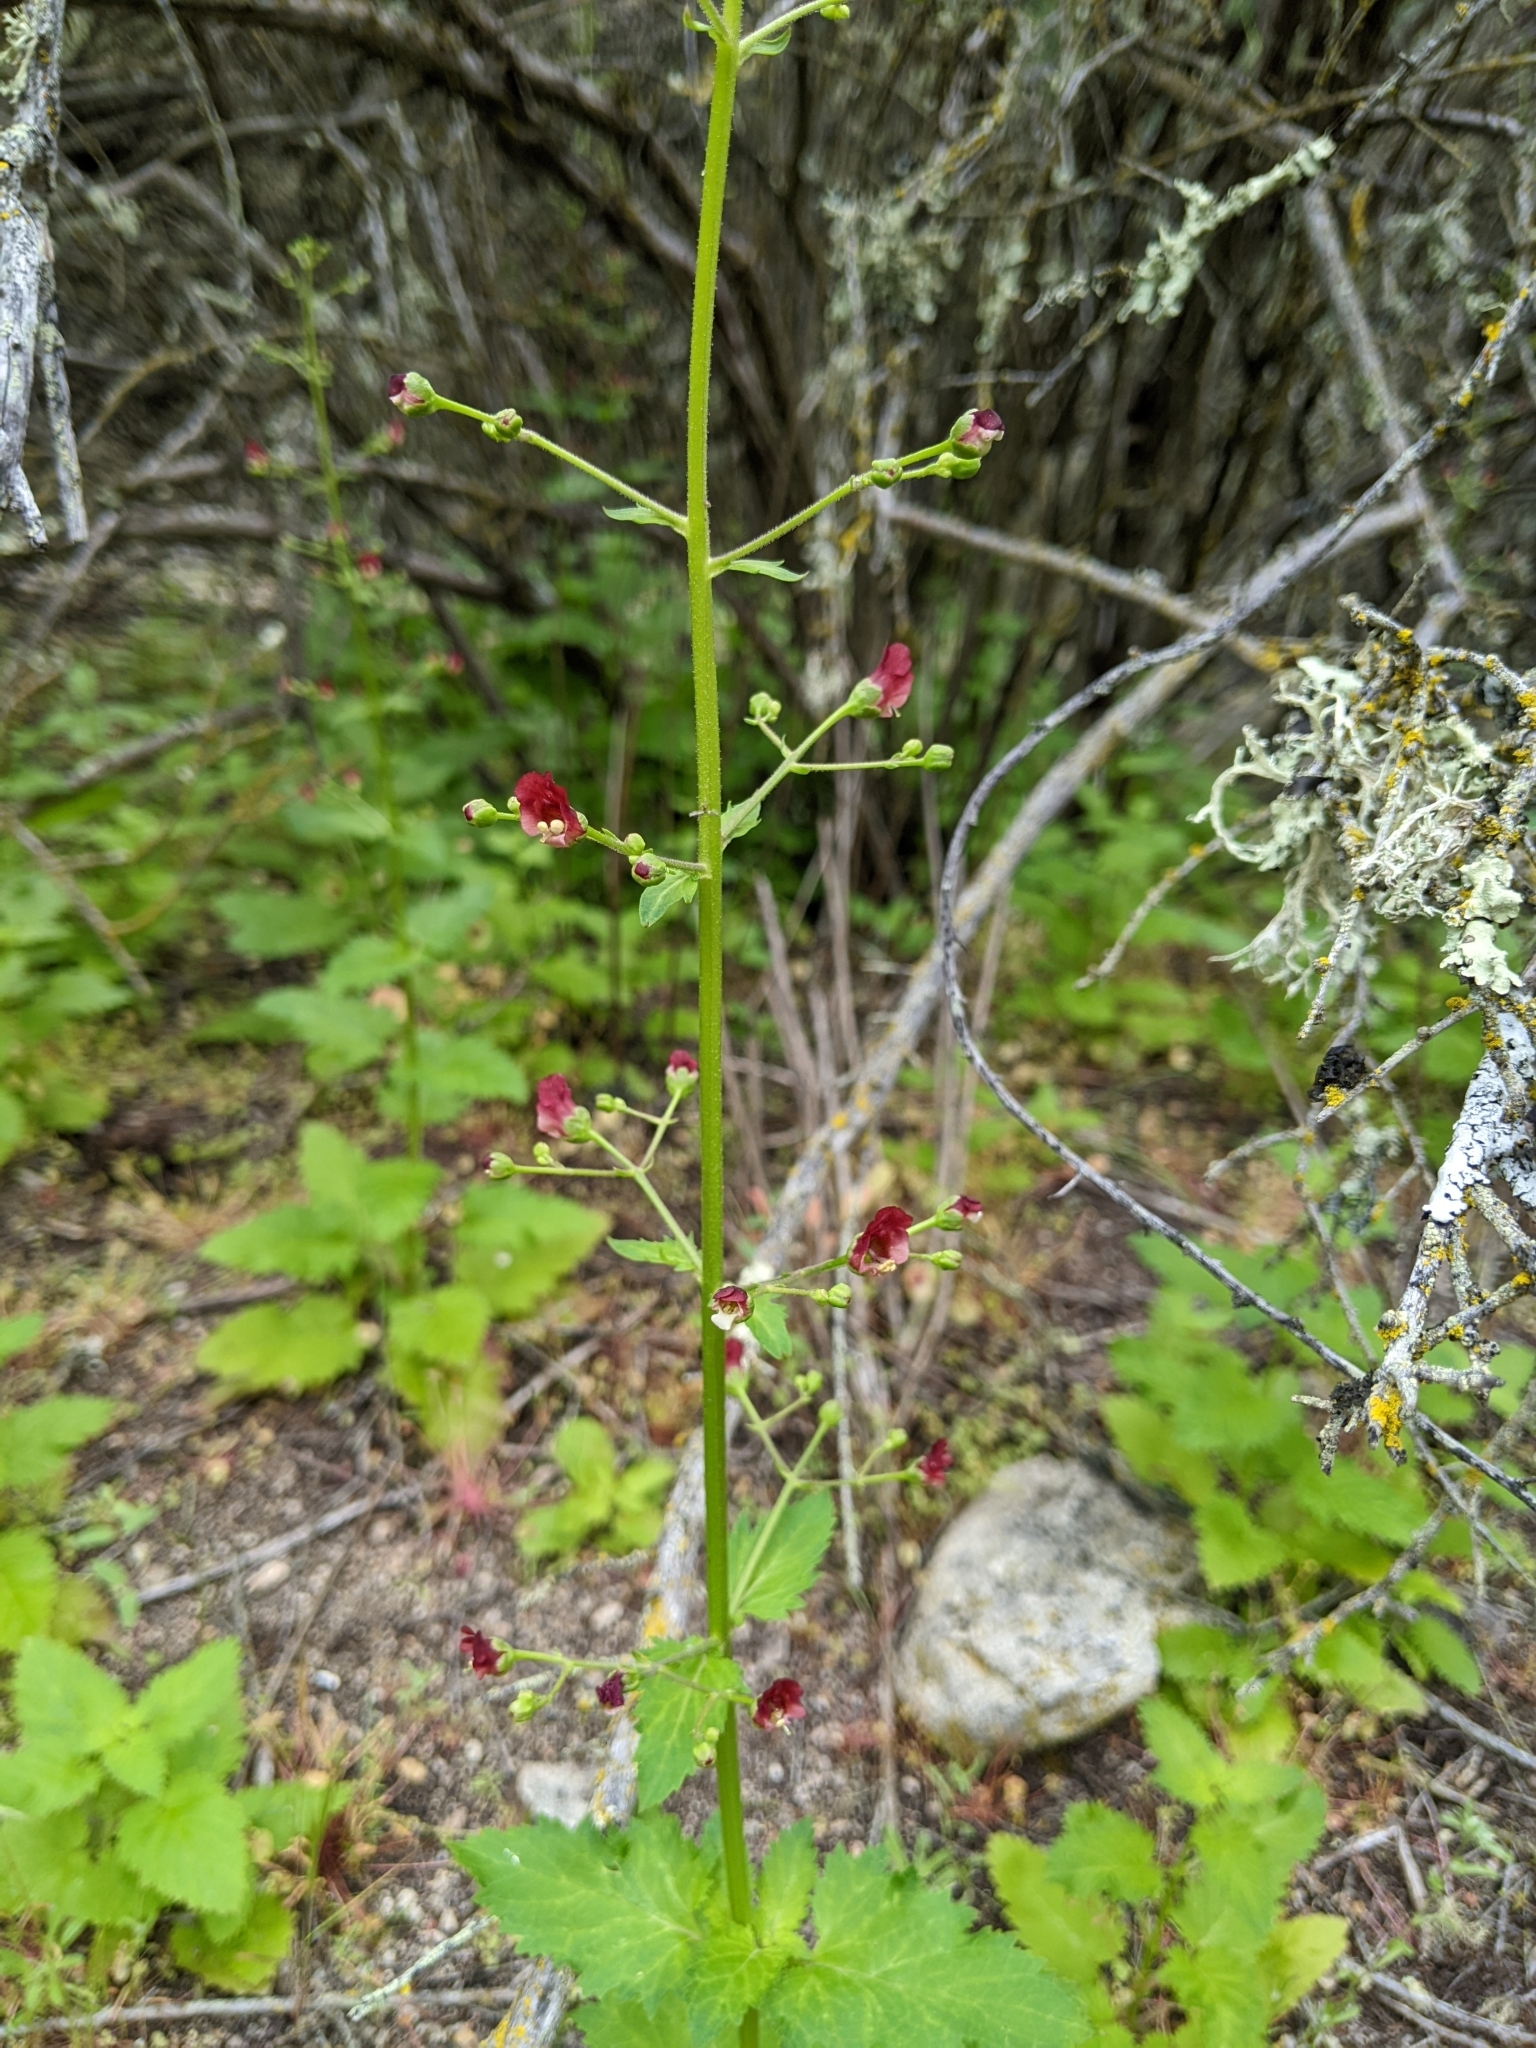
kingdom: Plantae
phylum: Tracheophyta
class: Magnoliopsida
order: Lamiales
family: Scrophulariaceae
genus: Scrophularia
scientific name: Scrophularia californica
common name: California figwort
